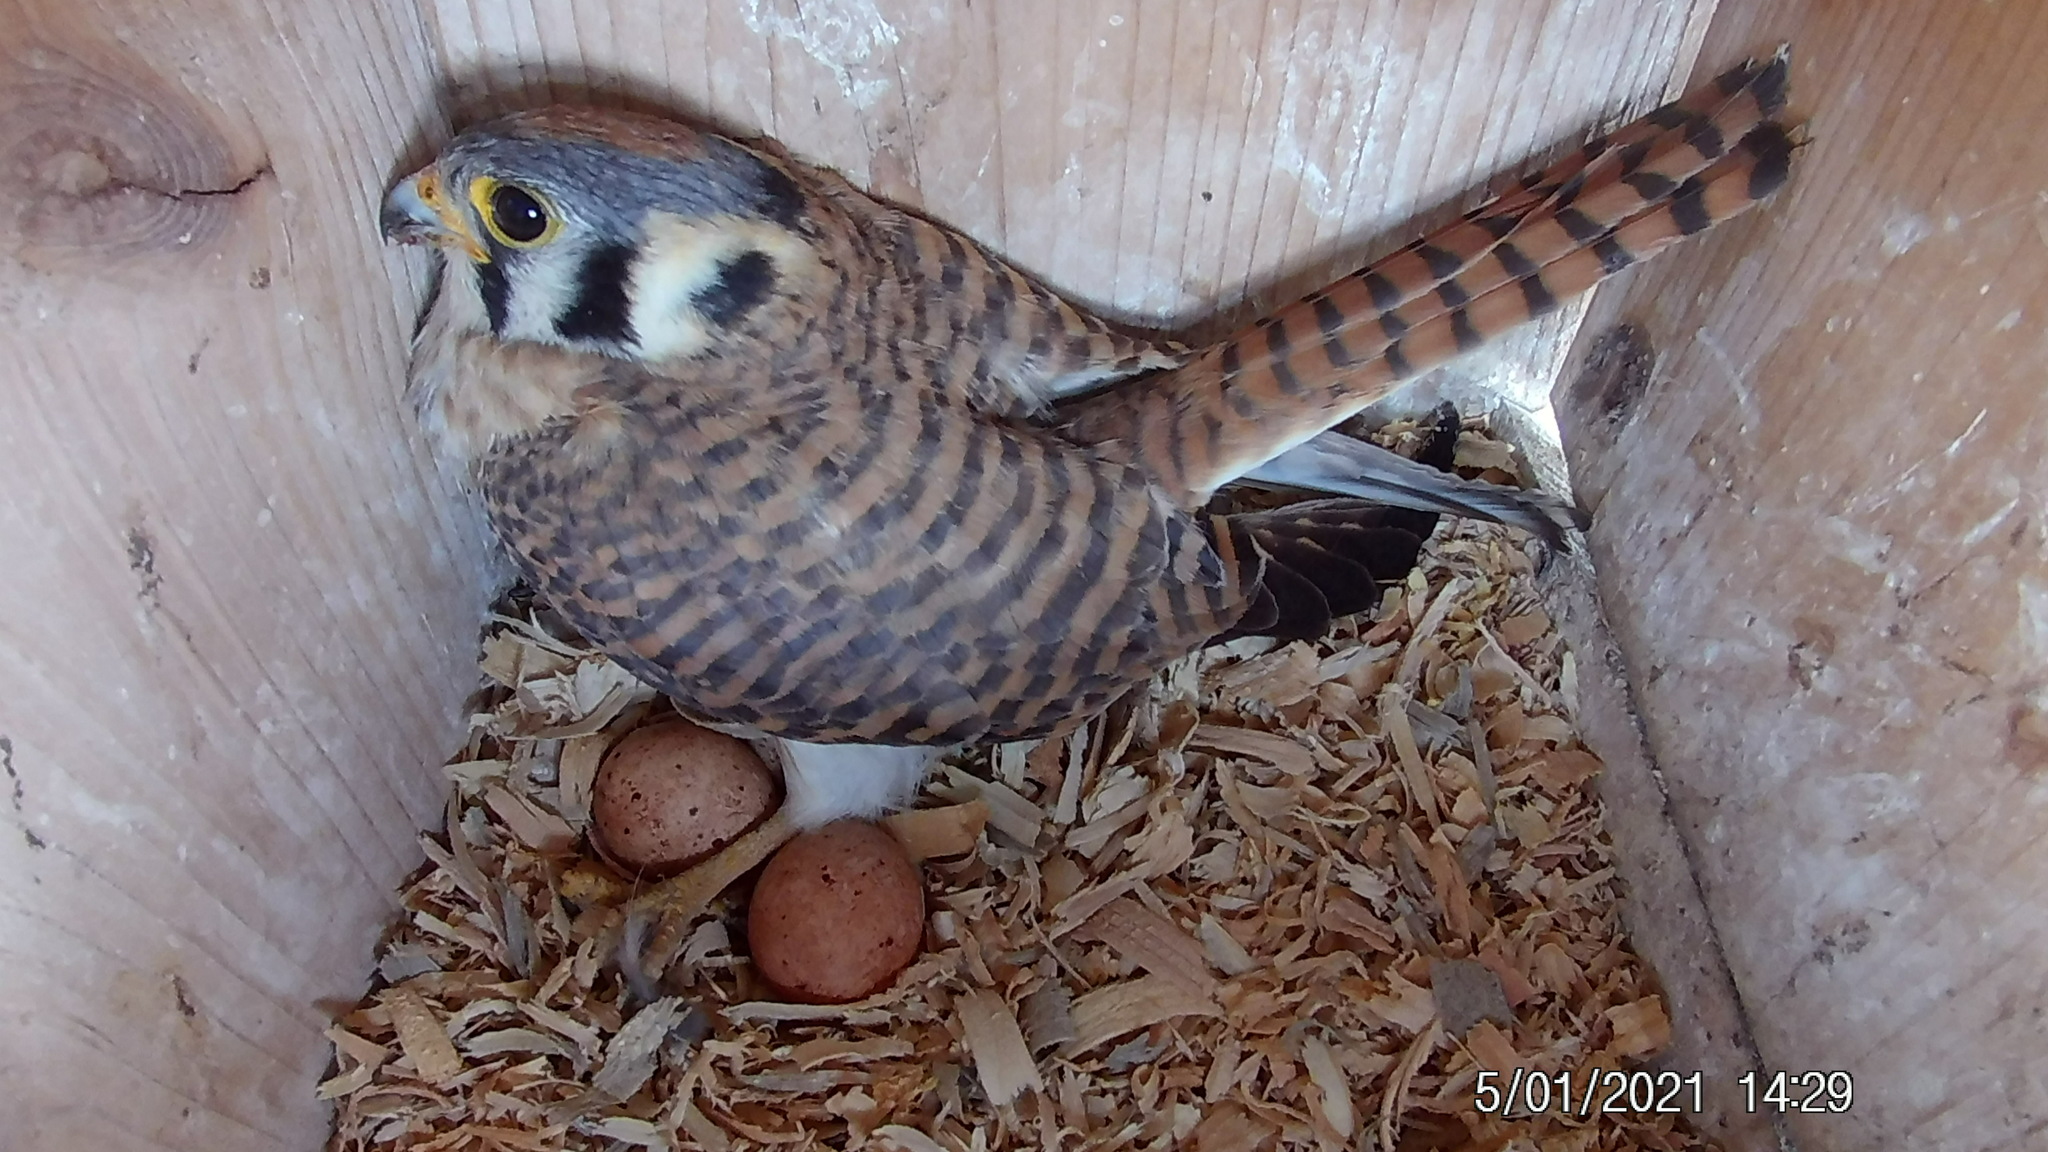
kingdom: Animalia
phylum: Chordata
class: Aves
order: Falconiformes
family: Falconidae
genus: Falco
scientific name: Falco sparverius
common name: American kestrel
